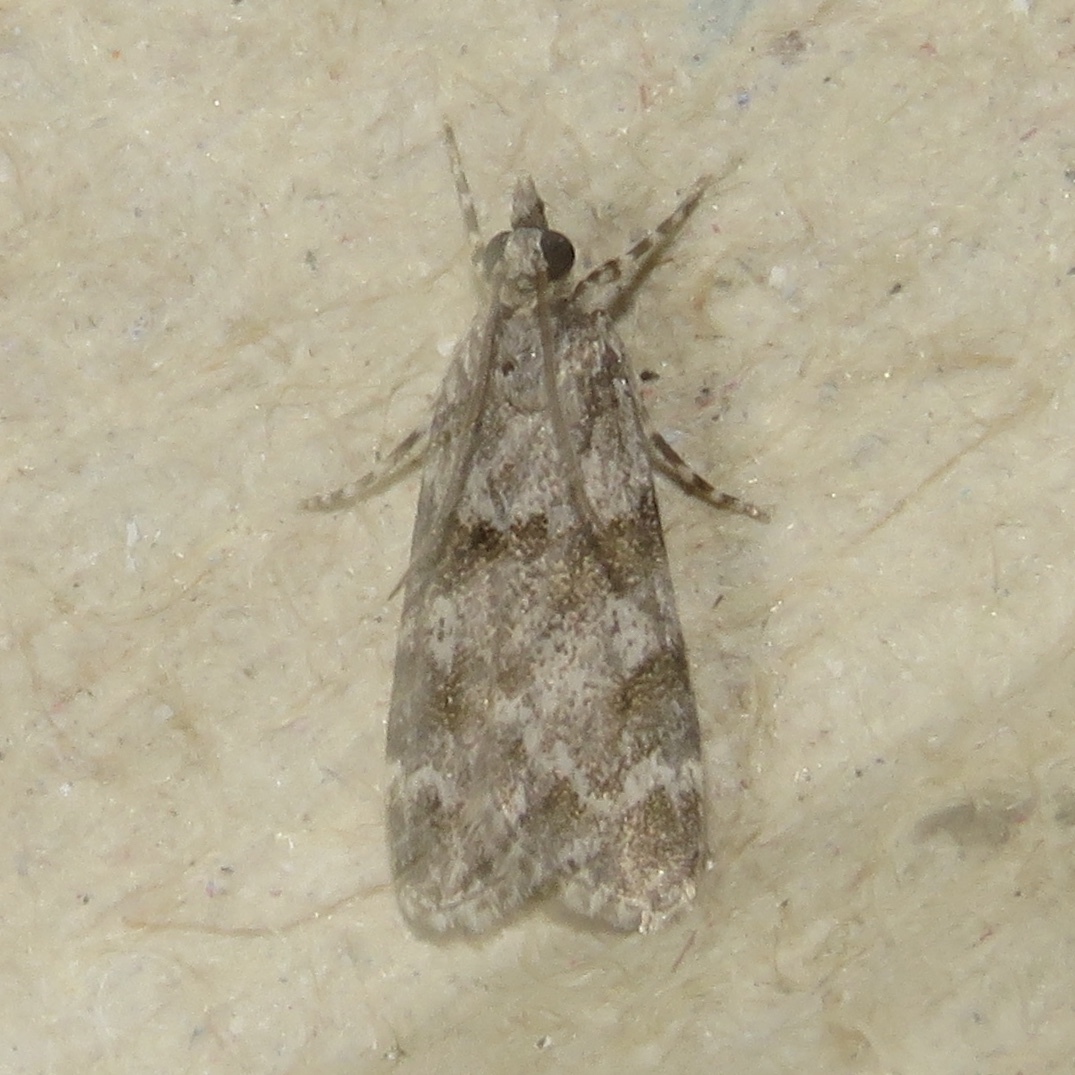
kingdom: Animalia
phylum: Arthropoda
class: Insecta
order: Lepidoptera
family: Crambidae
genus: Scoparia
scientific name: Scoparia biplagialis
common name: Double-striped scoparia moth
